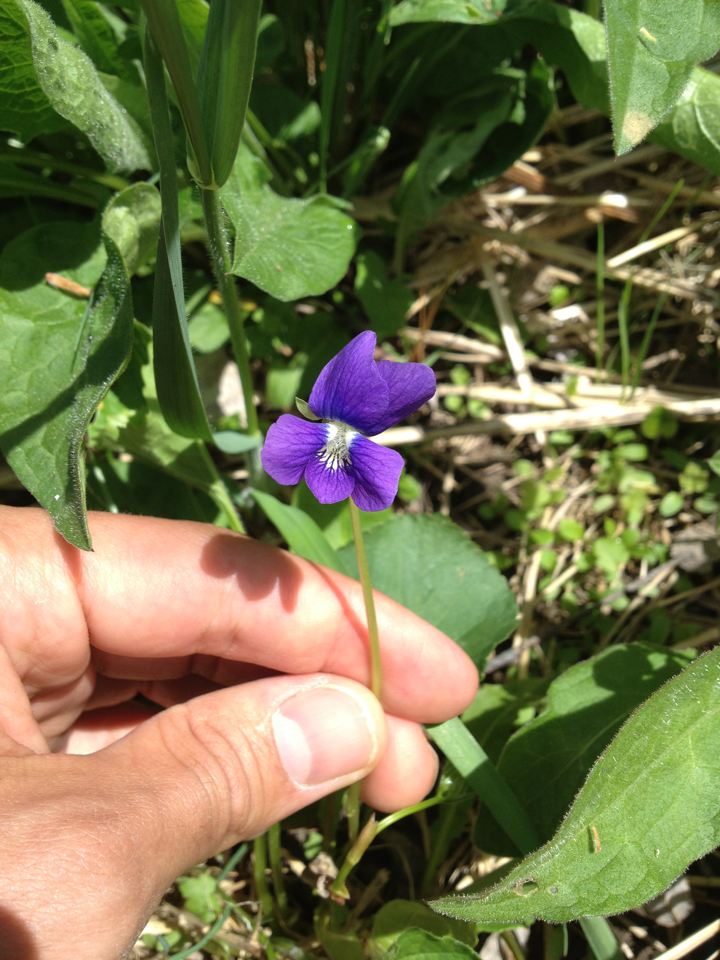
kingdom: Plantae
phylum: Tracheophyta
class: Magnoliopsida
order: Malpighiales
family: Violaceae
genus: Viola
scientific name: Viola sororia
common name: Dooryard violet
